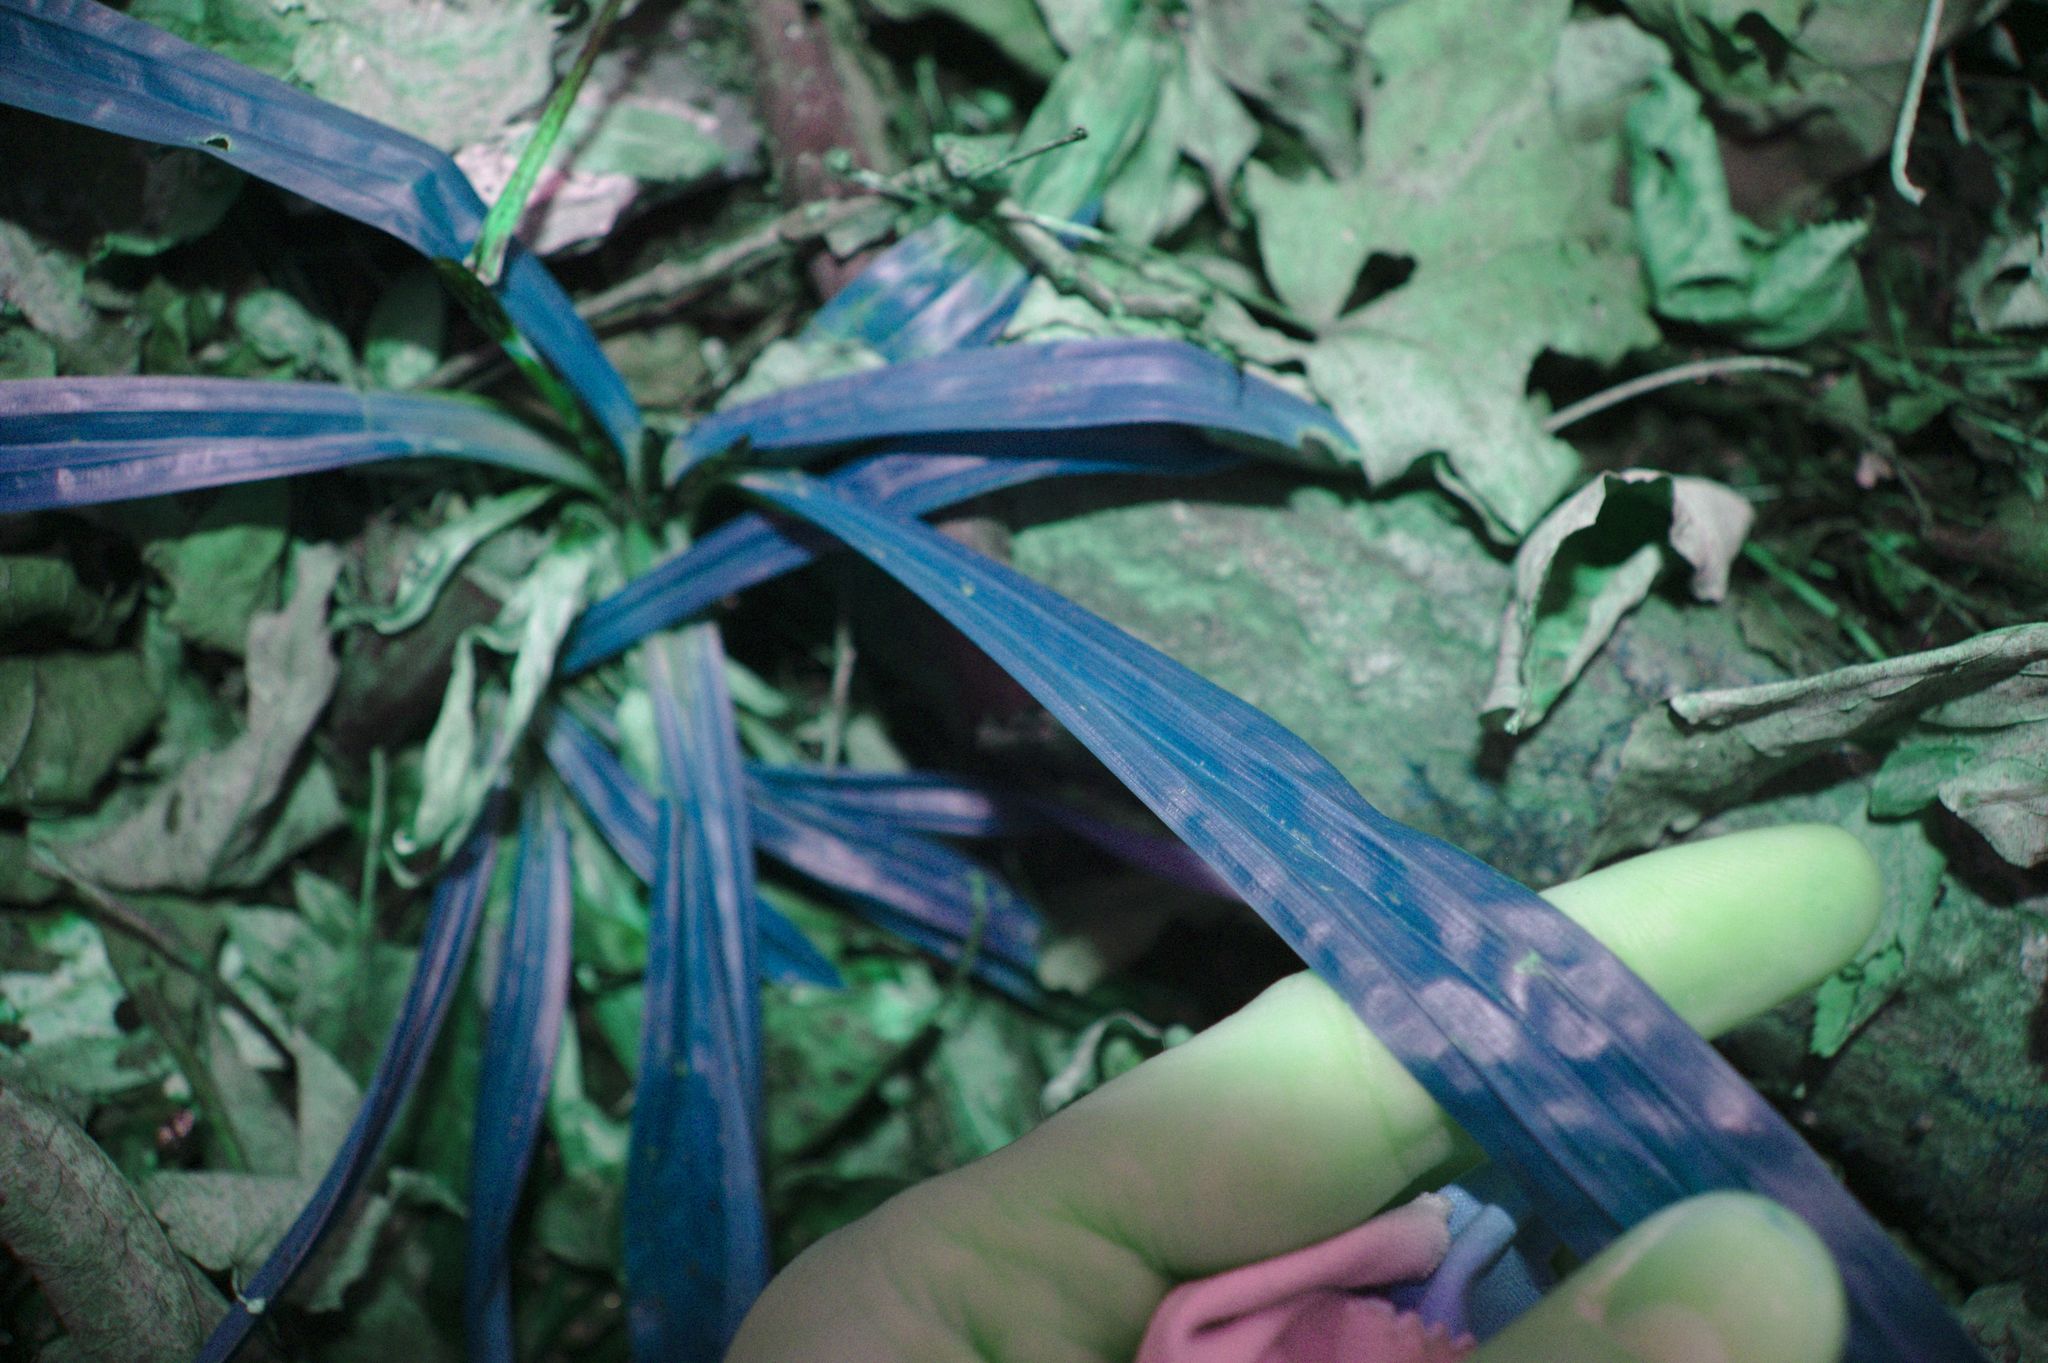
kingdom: Plantae
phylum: Tracheophyta
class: Liliopsida
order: Poales
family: Cyperaceae
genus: Carex
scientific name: Carex plantaginea
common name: Plantain-leaved sedge
